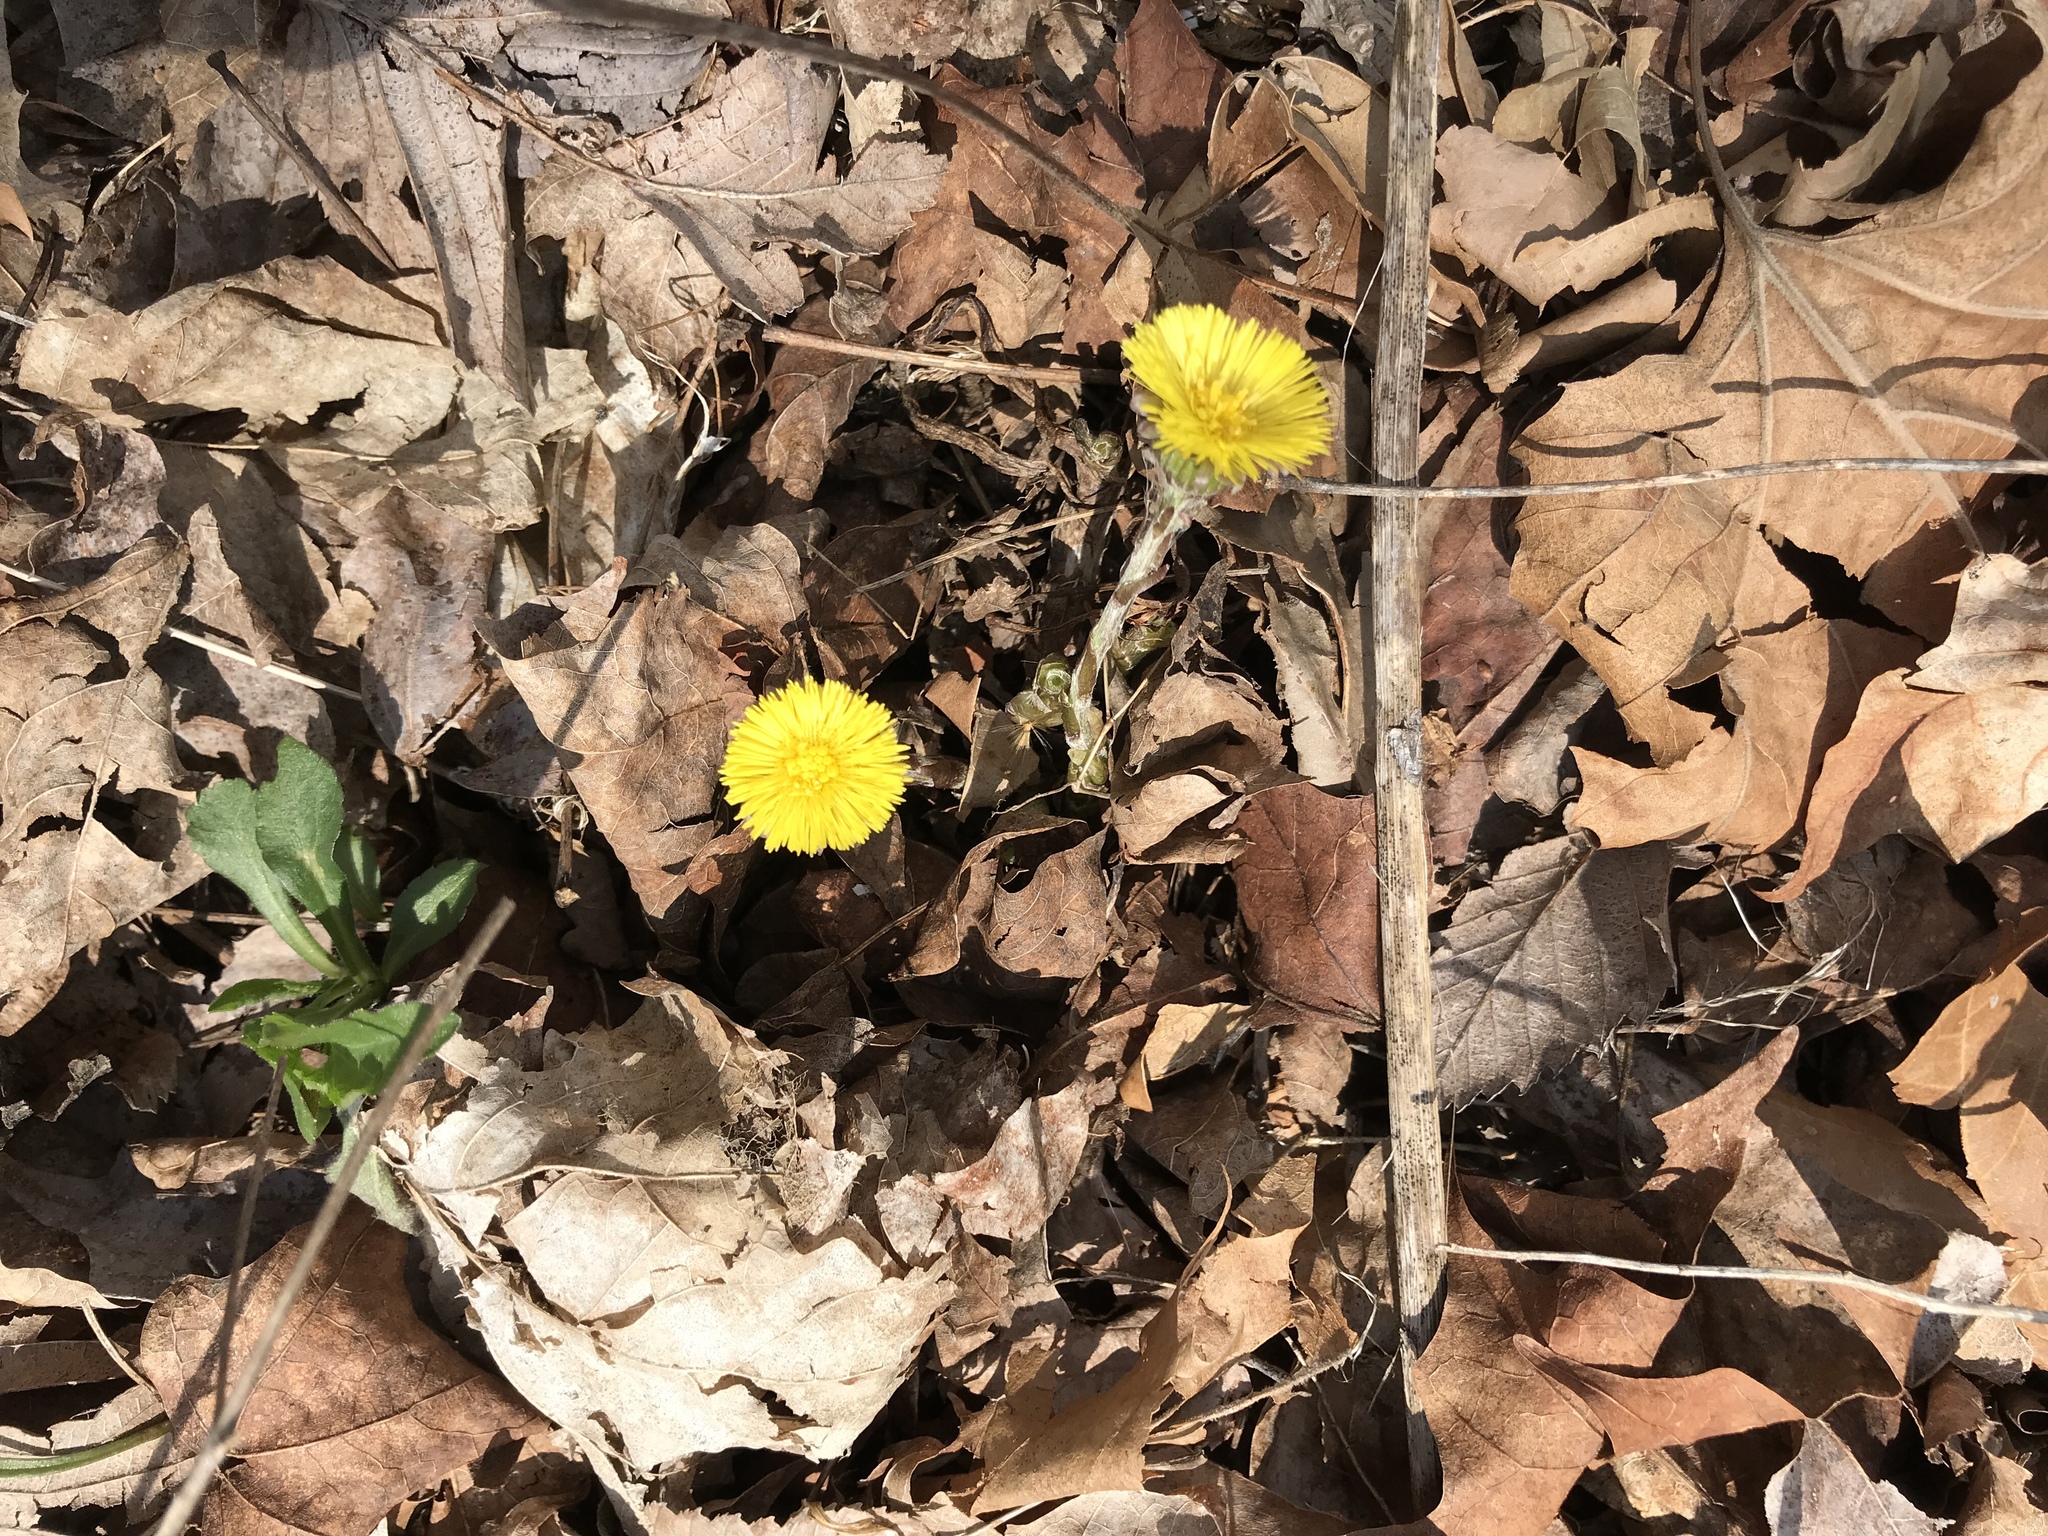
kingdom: Plantae
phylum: Tracheophyta
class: Magnoliopsida
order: Asterales
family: Asteraceae
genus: Tussilago
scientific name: Tussilago farfara
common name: Coltsfoot
